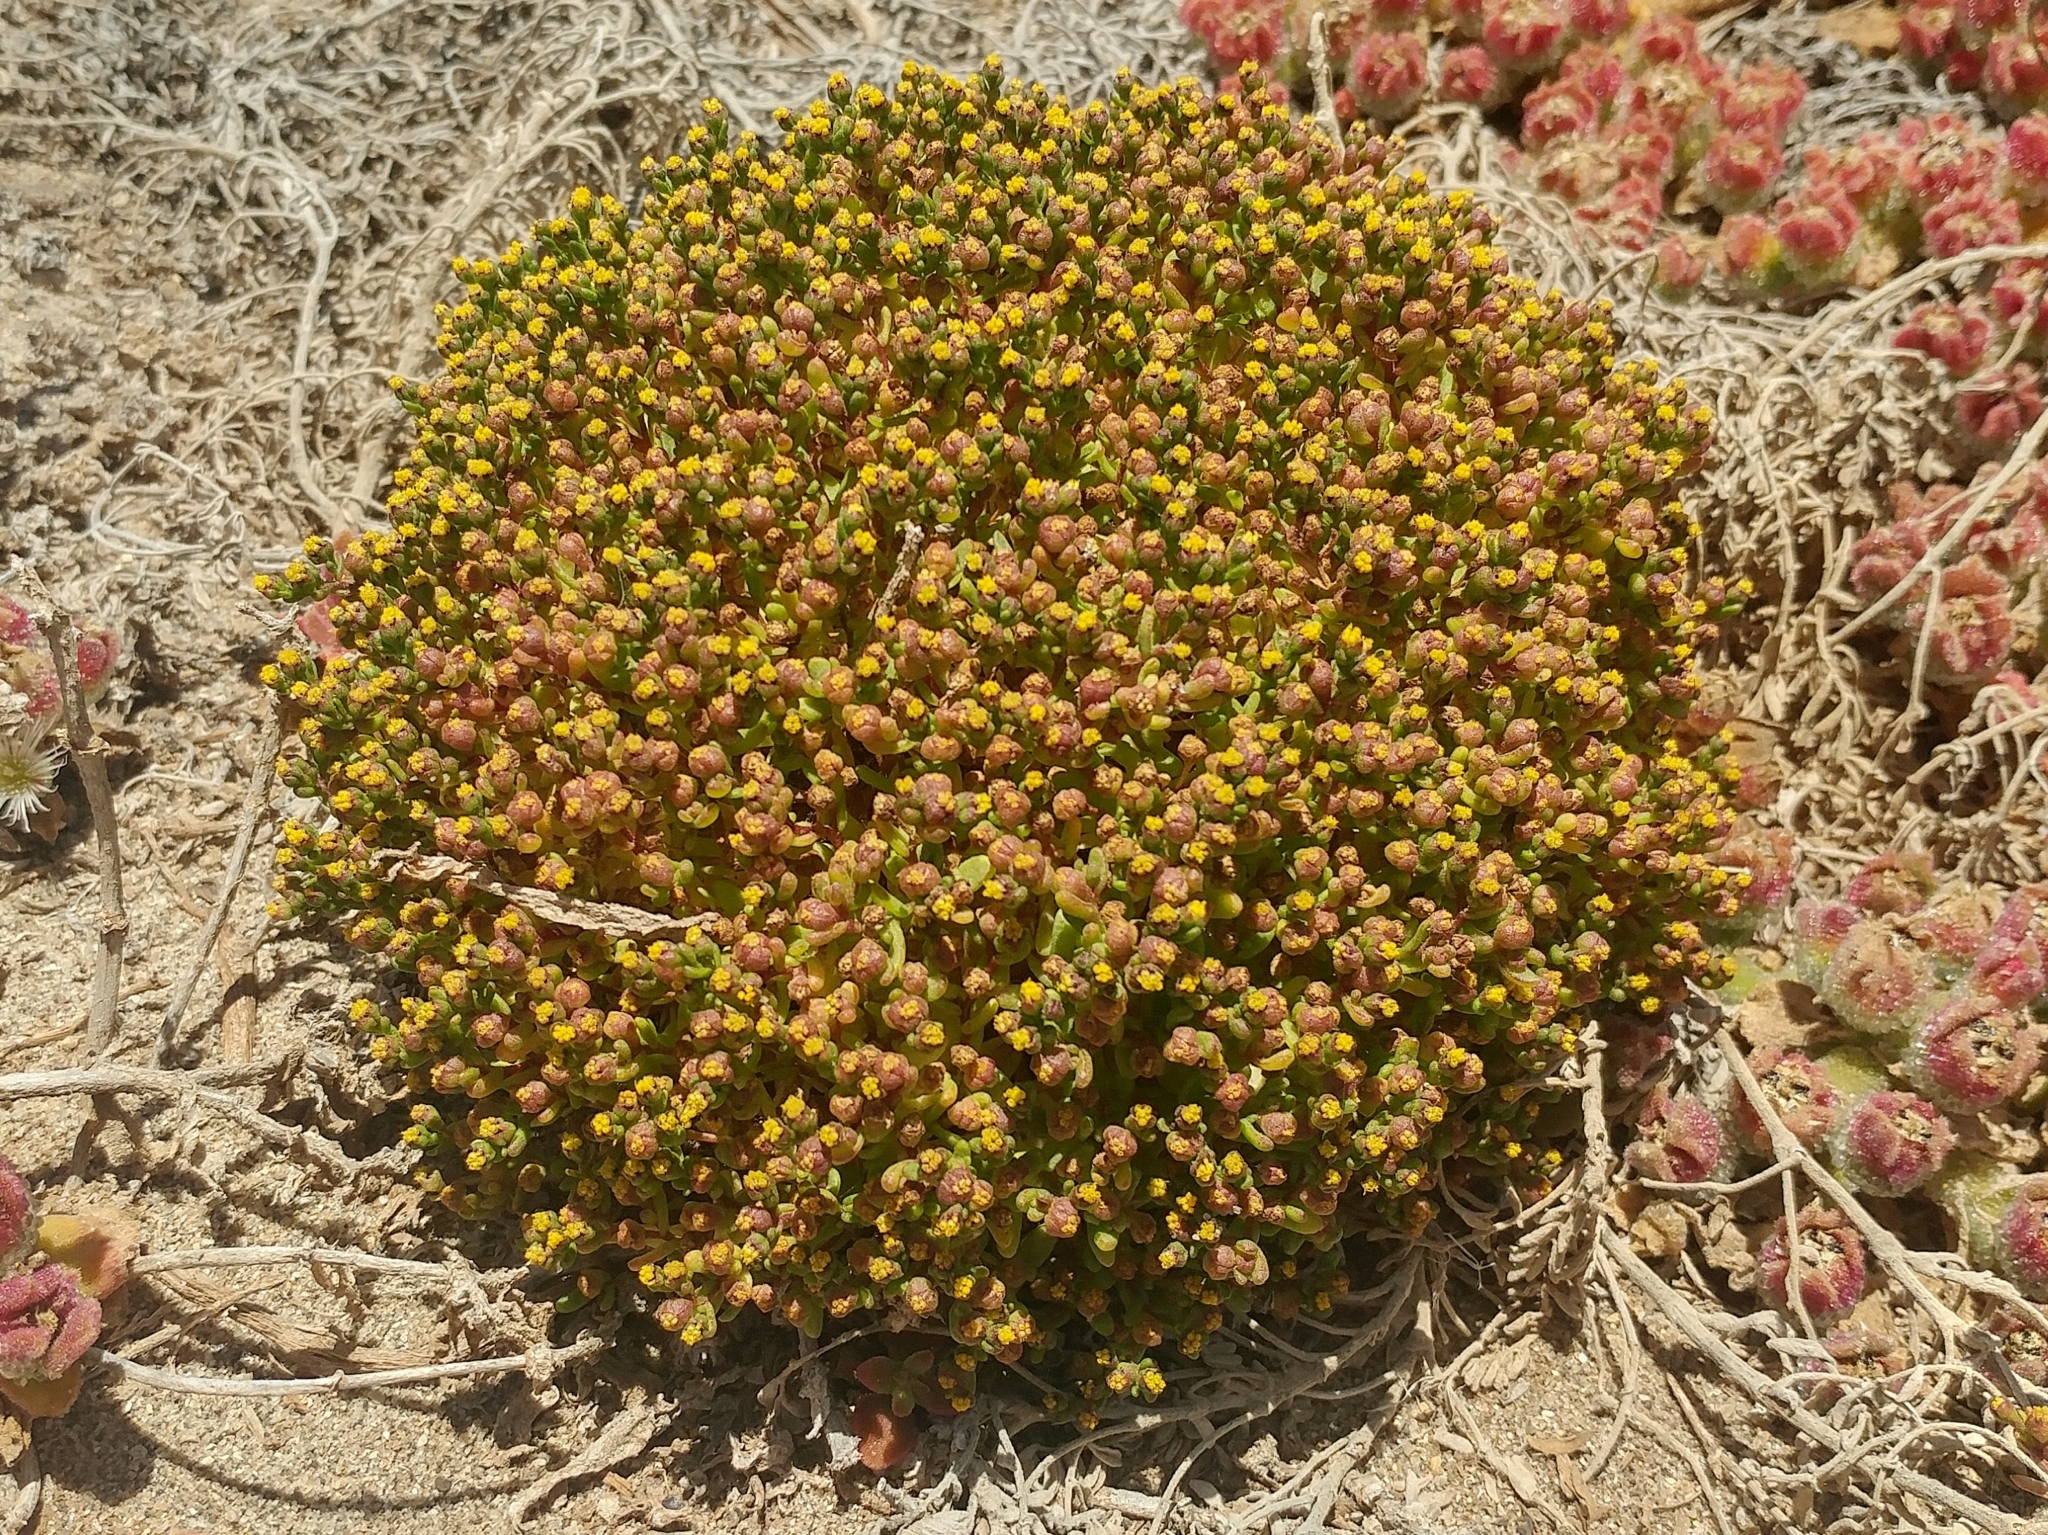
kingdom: Plantae
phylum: Tracheophyta
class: Magnoliopsida
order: Asterales
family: Asteraceae
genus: Amblyopappus
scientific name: Amblyopappus pusillus
